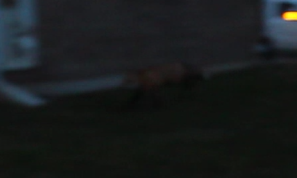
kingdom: Animalia
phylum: Chordata
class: Mammalia
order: Carnivora
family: Canidae
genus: Vulpes
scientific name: Vulpes vulpes
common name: Red fox
